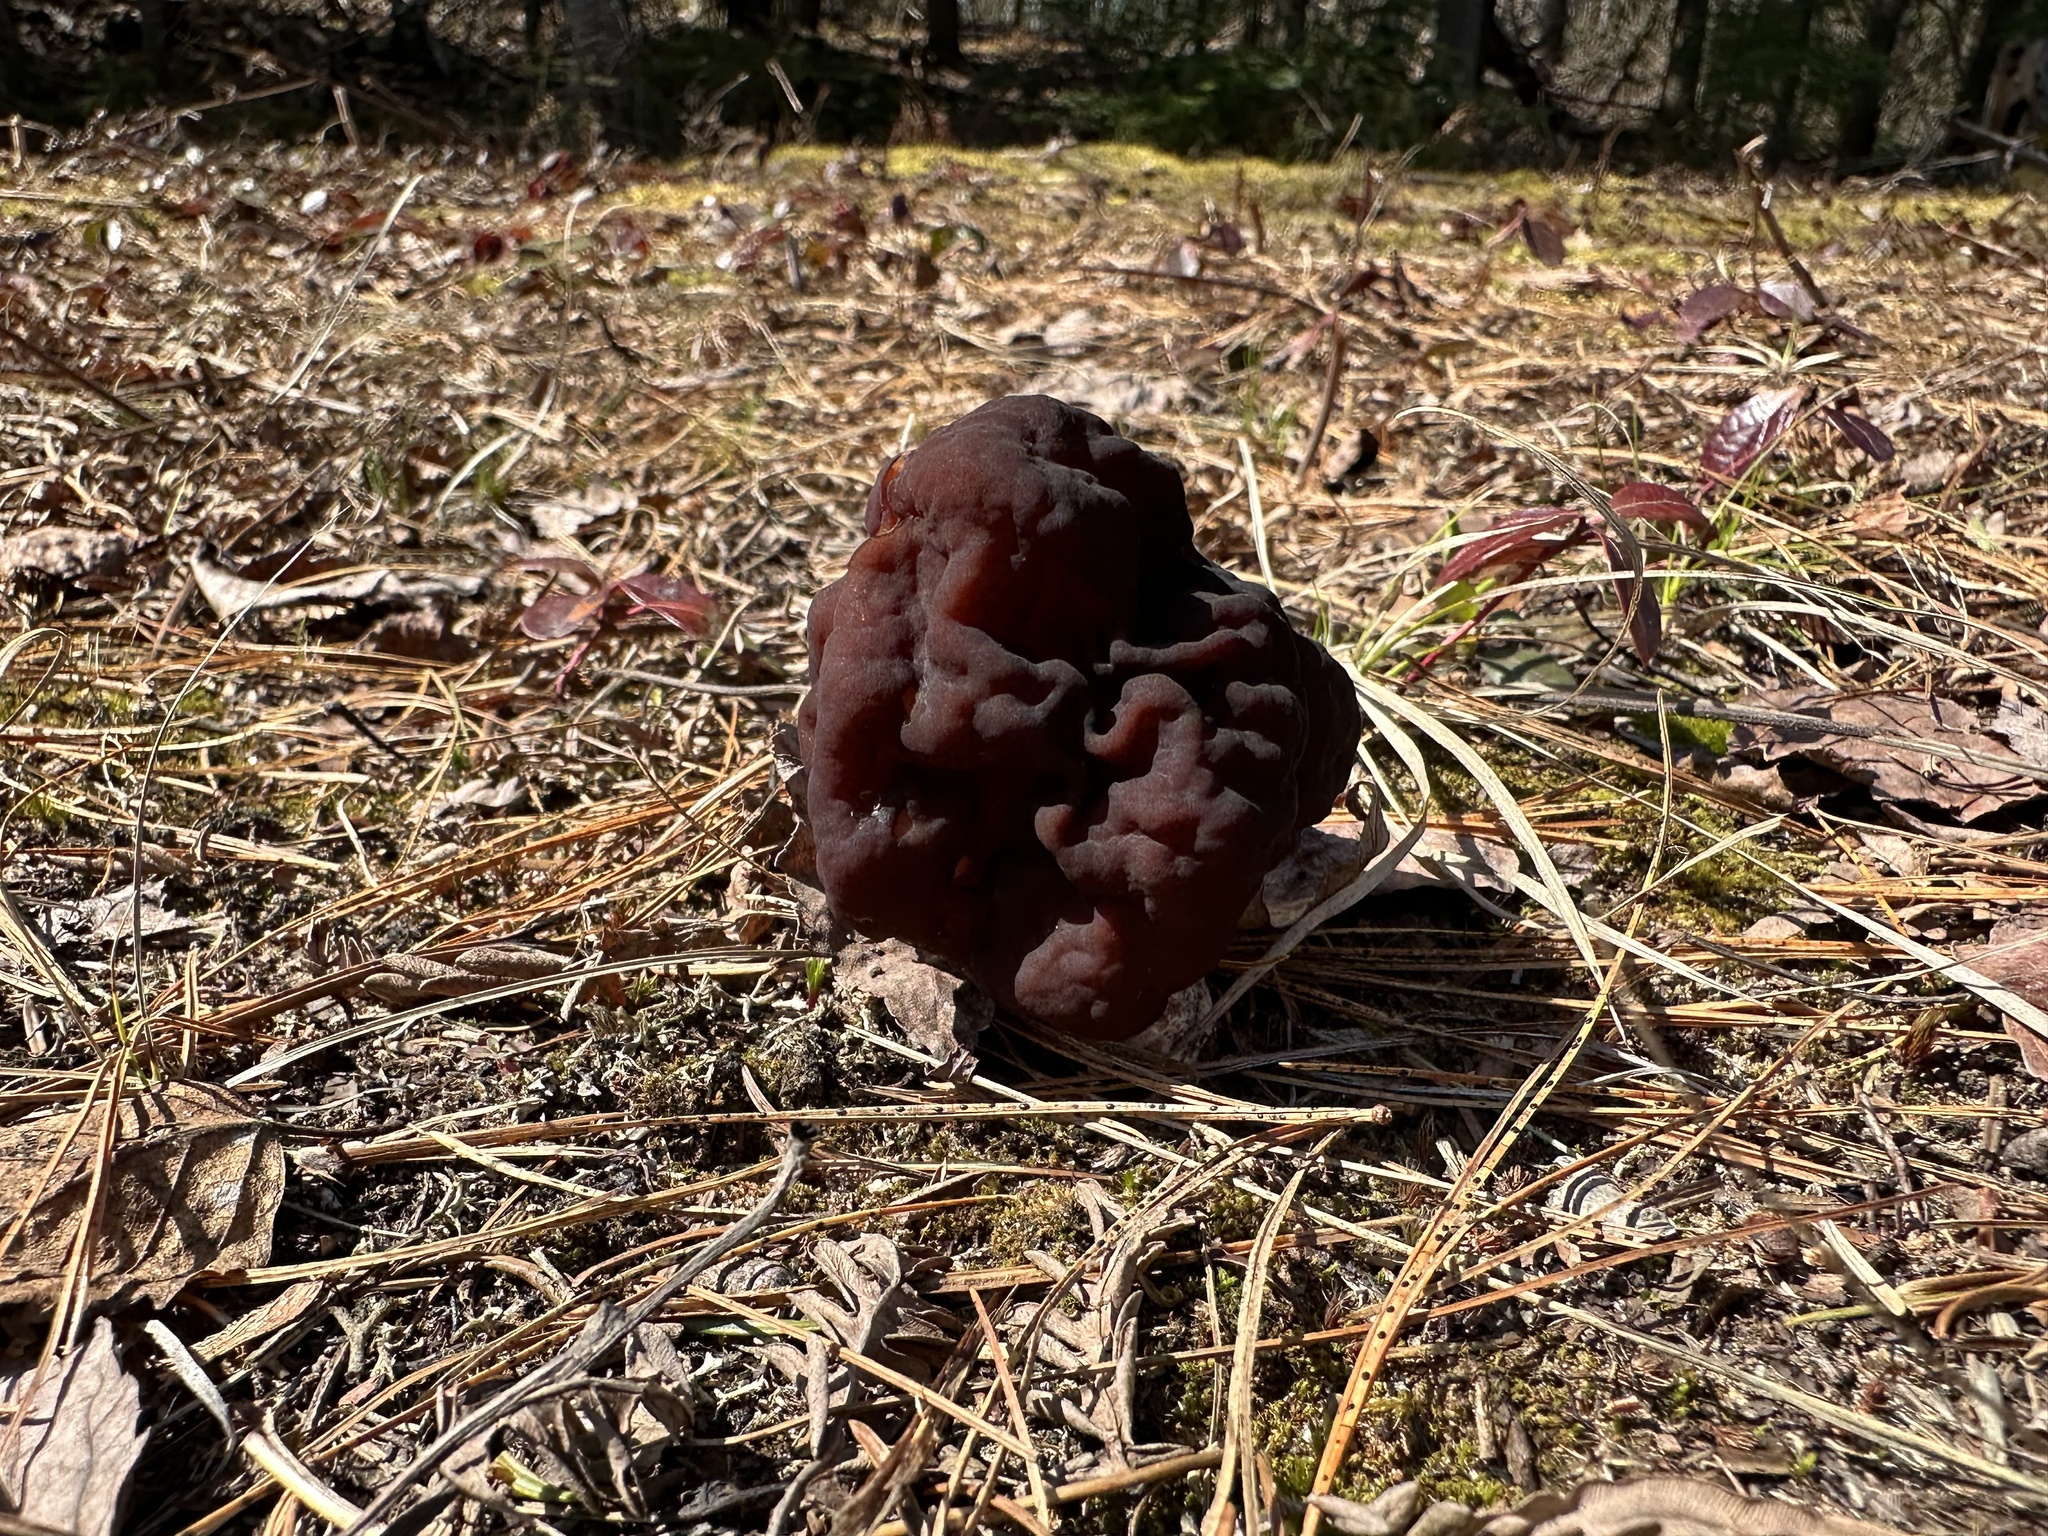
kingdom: Fungi
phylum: Ascomycota
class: Pezizomycetes
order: Pezizales
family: Discinaceae
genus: Gyromitra
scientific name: Gyromitra esculenta
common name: False morel
